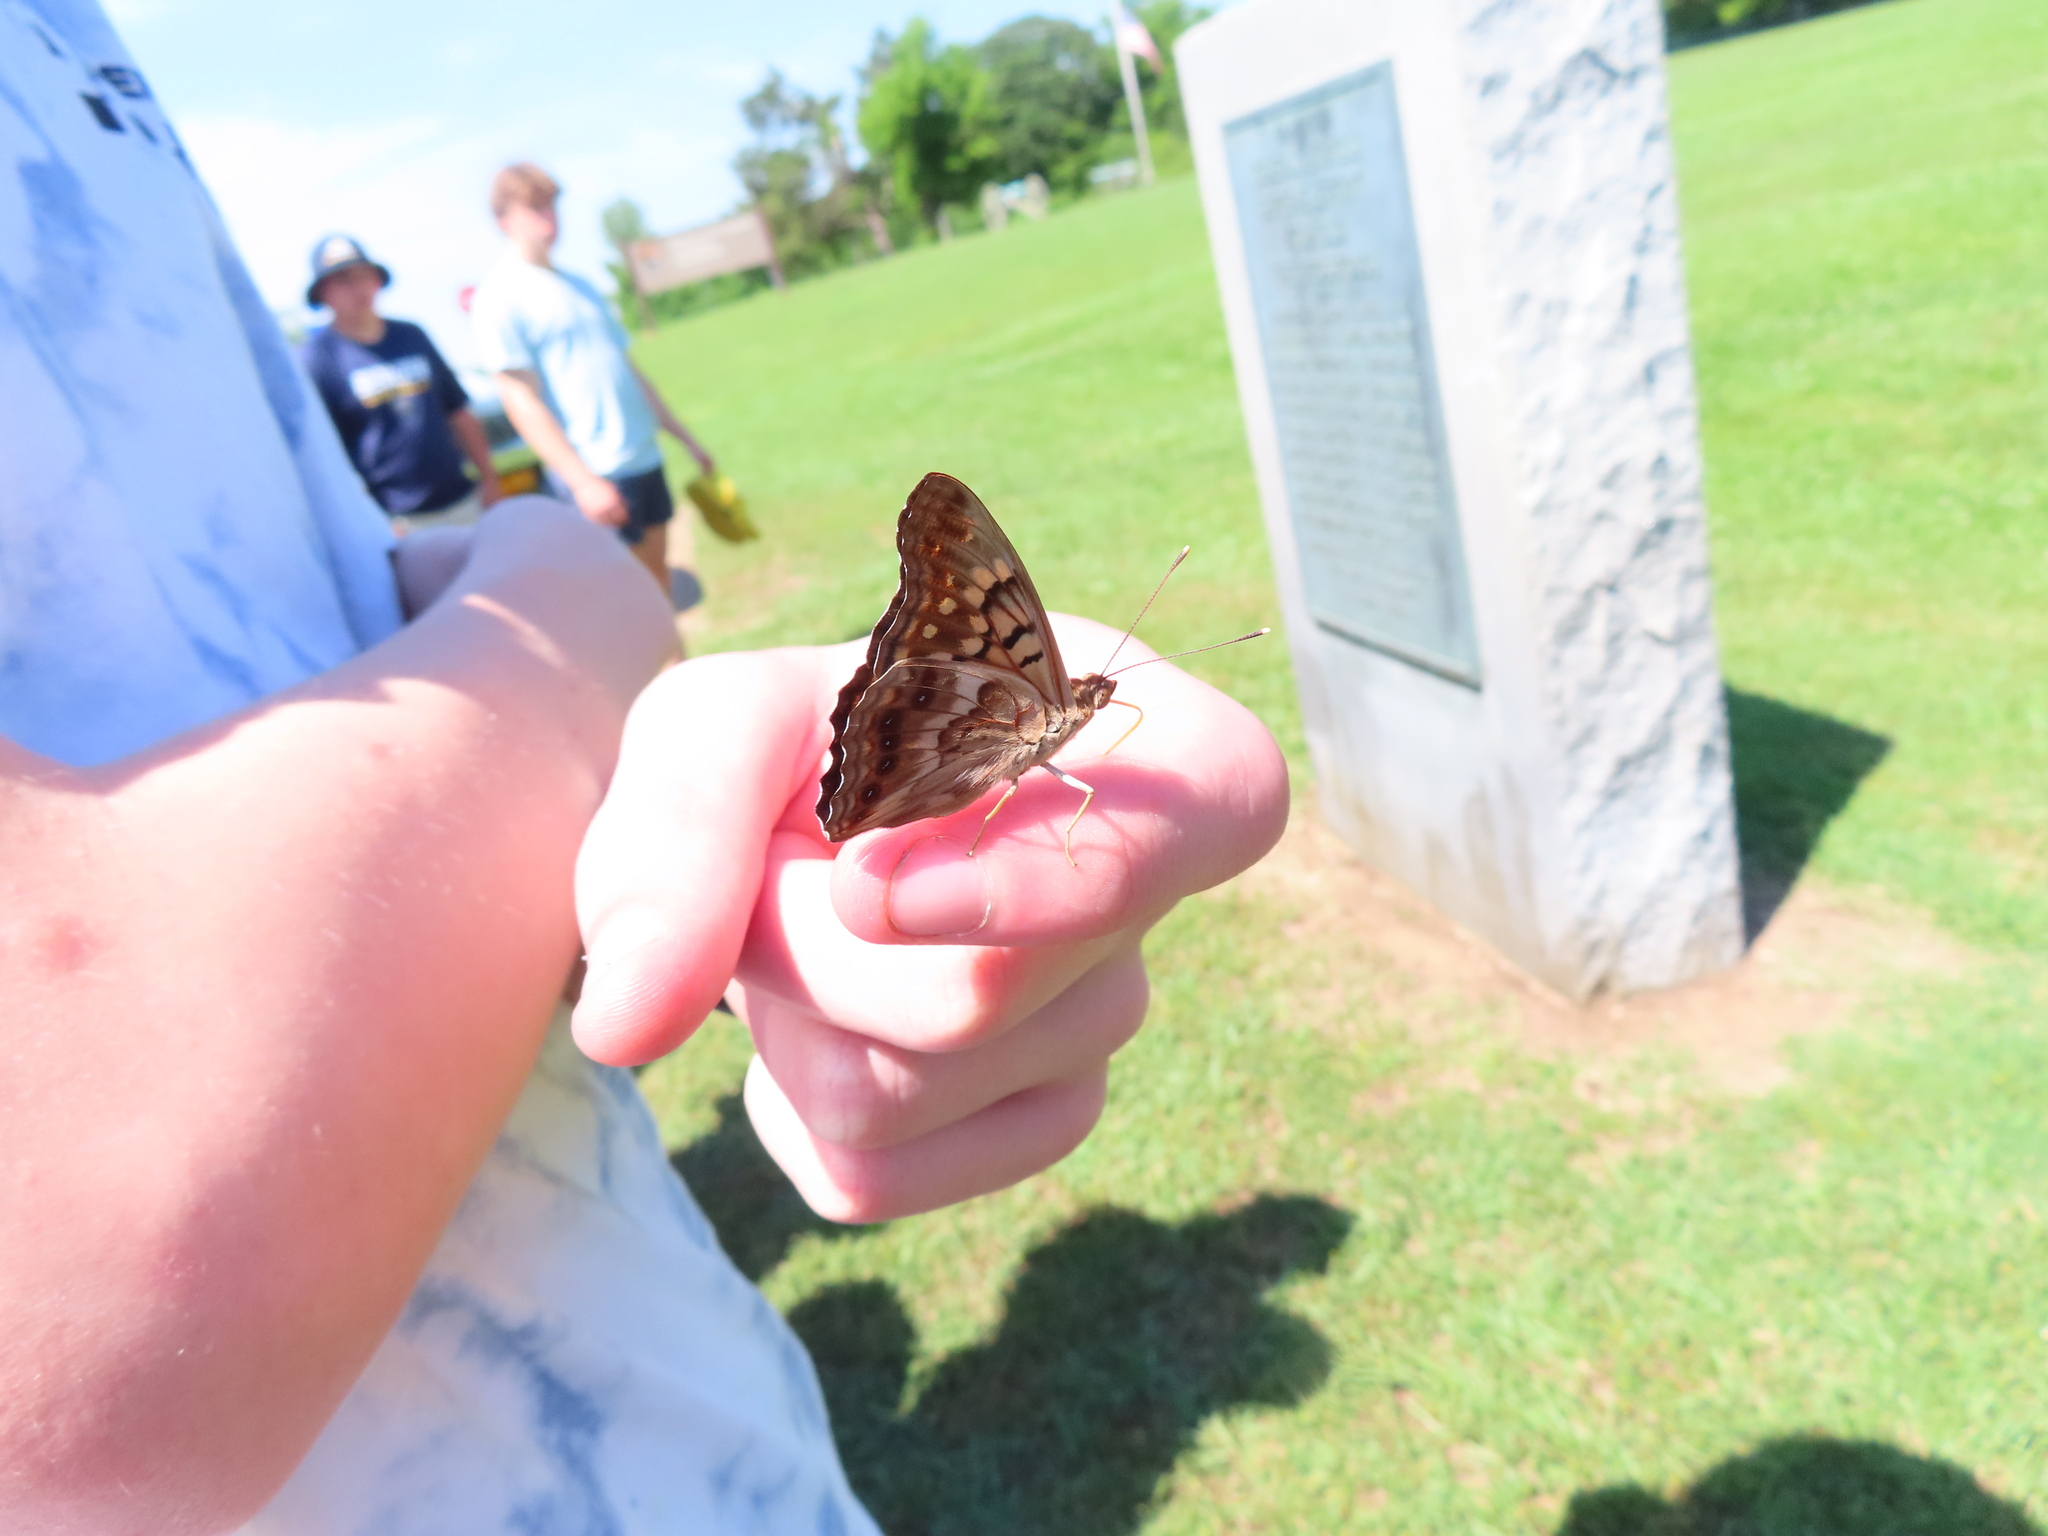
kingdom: Animalia
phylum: Arthropoda
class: Insecta
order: Lepidoptera
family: Nymphalidae
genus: Asterocampa
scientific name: Asterocampa clyton
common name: Tawny emperor
